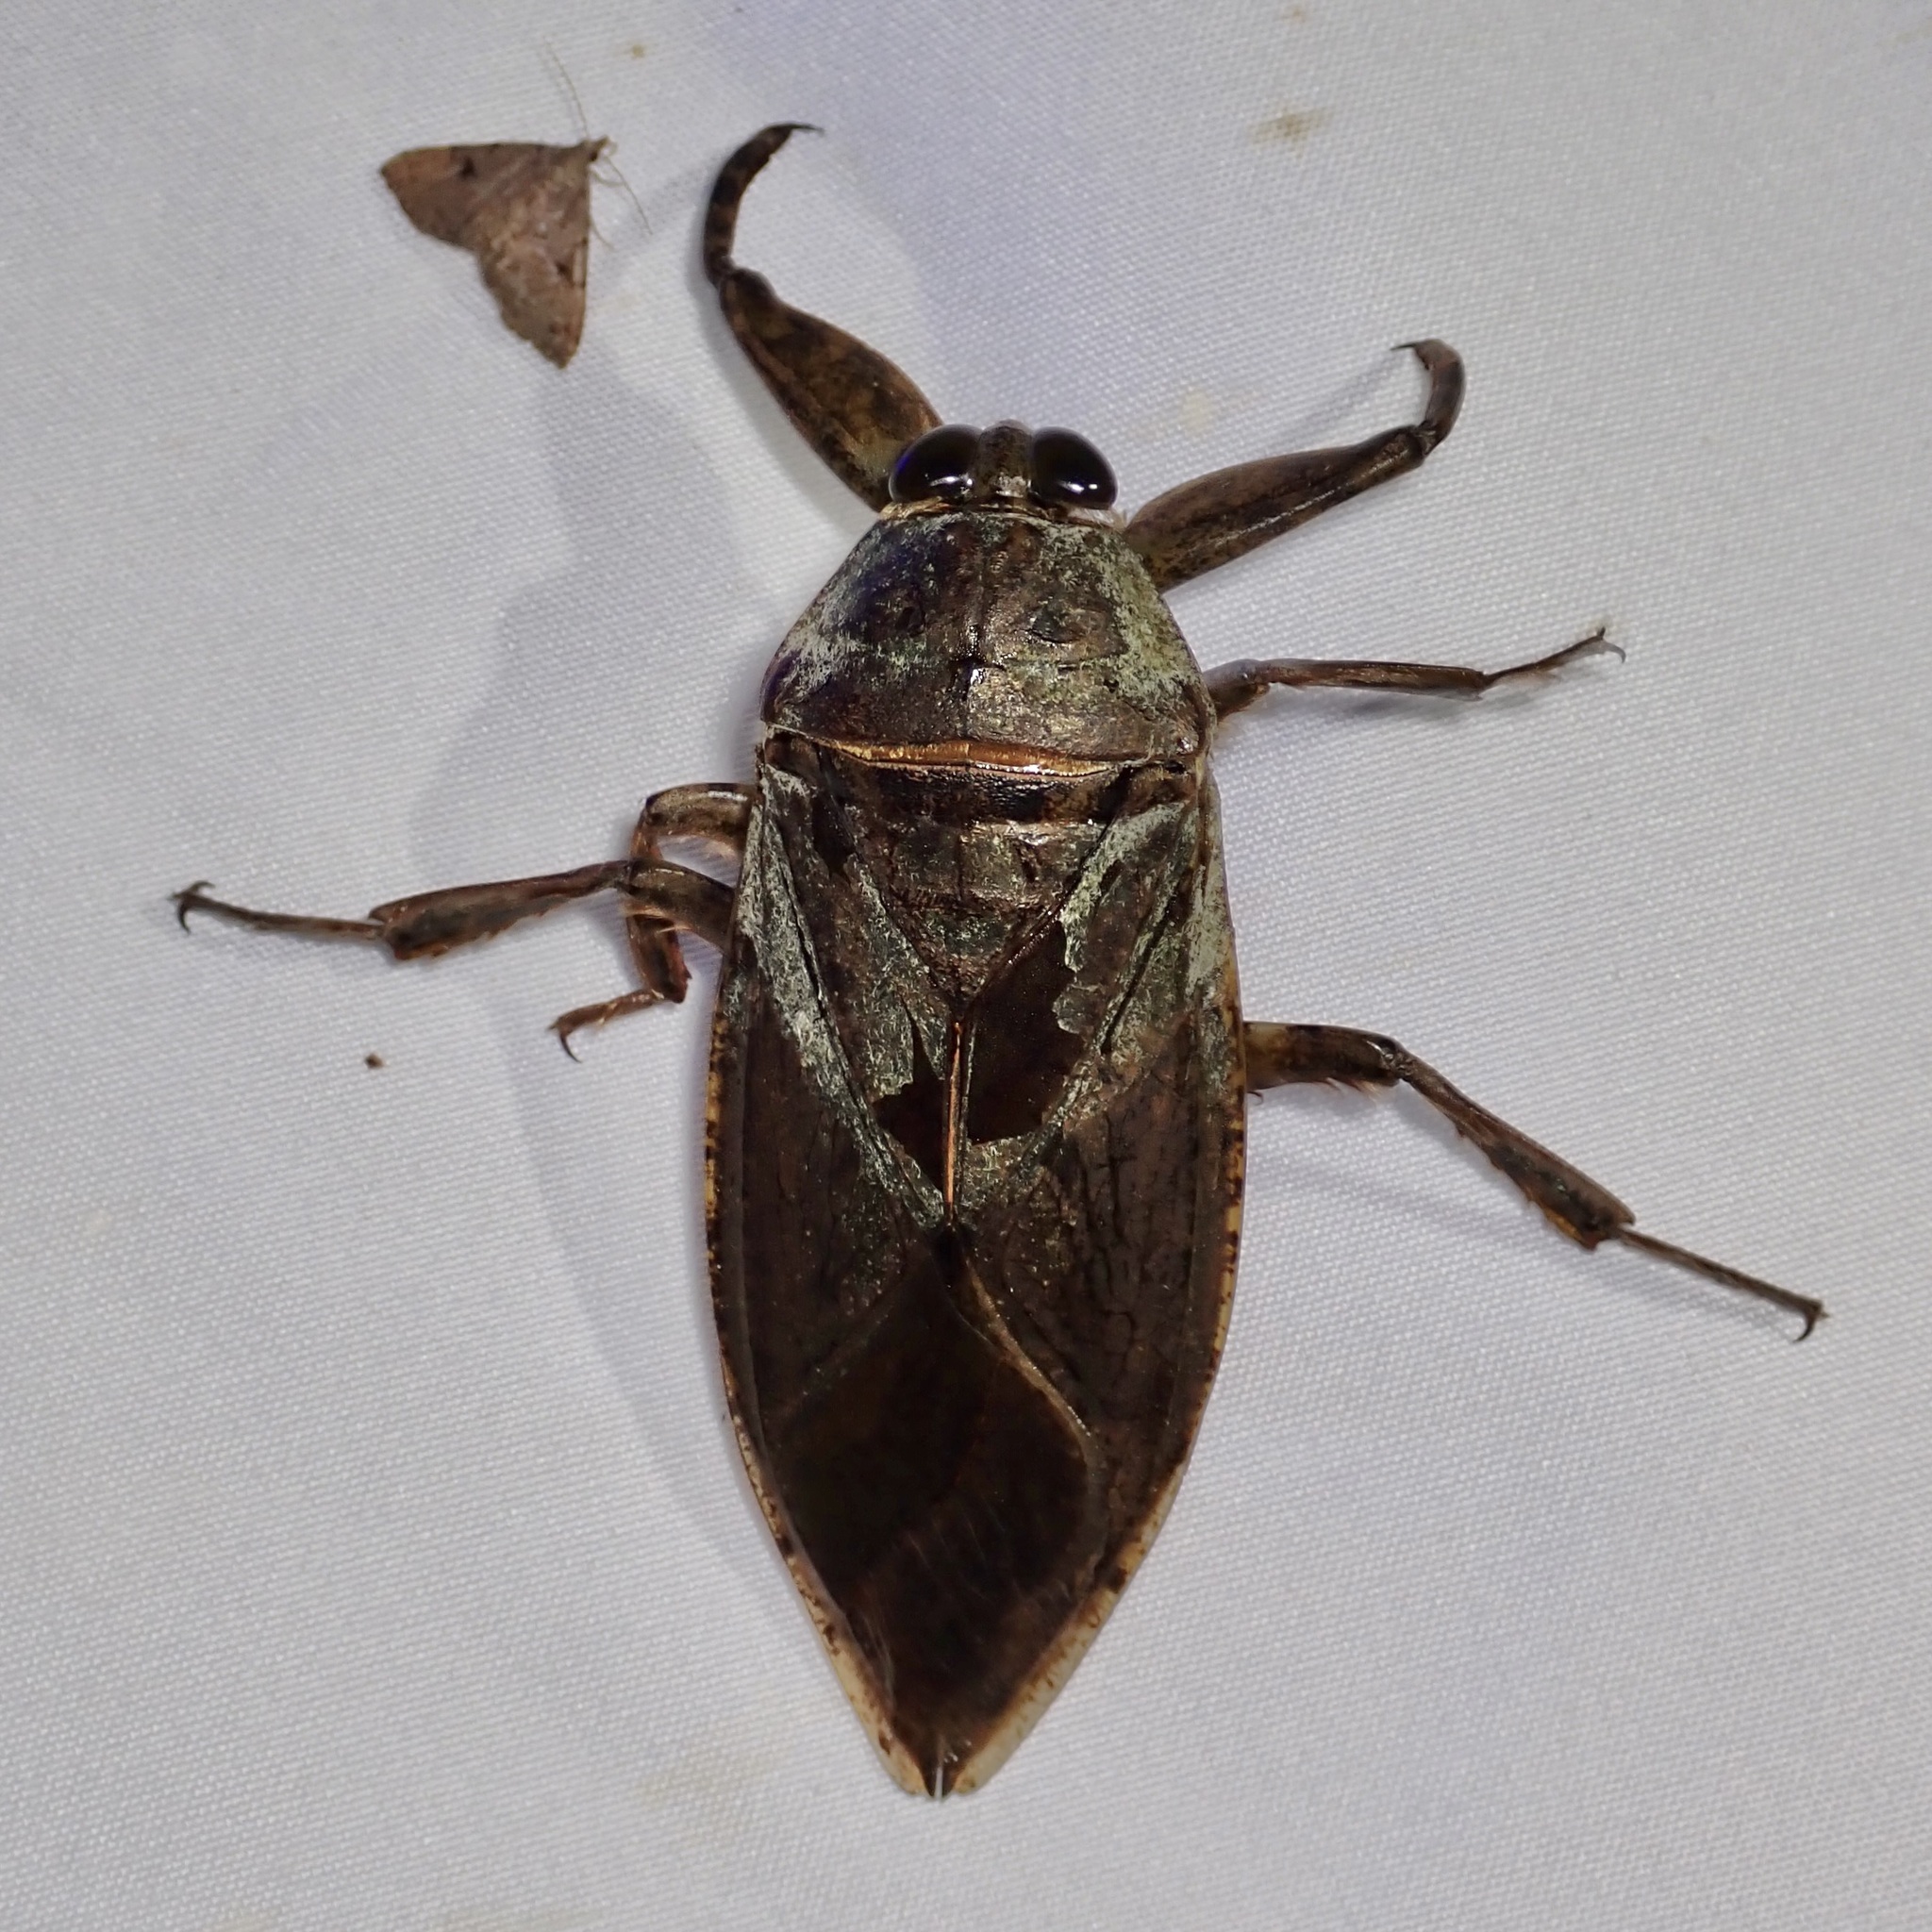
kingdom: Animalia
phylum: Arthropoda
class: Insecta
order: Hemiptera
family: Belostomatidae
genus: Lethocerus
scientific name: Lethocerus medius
